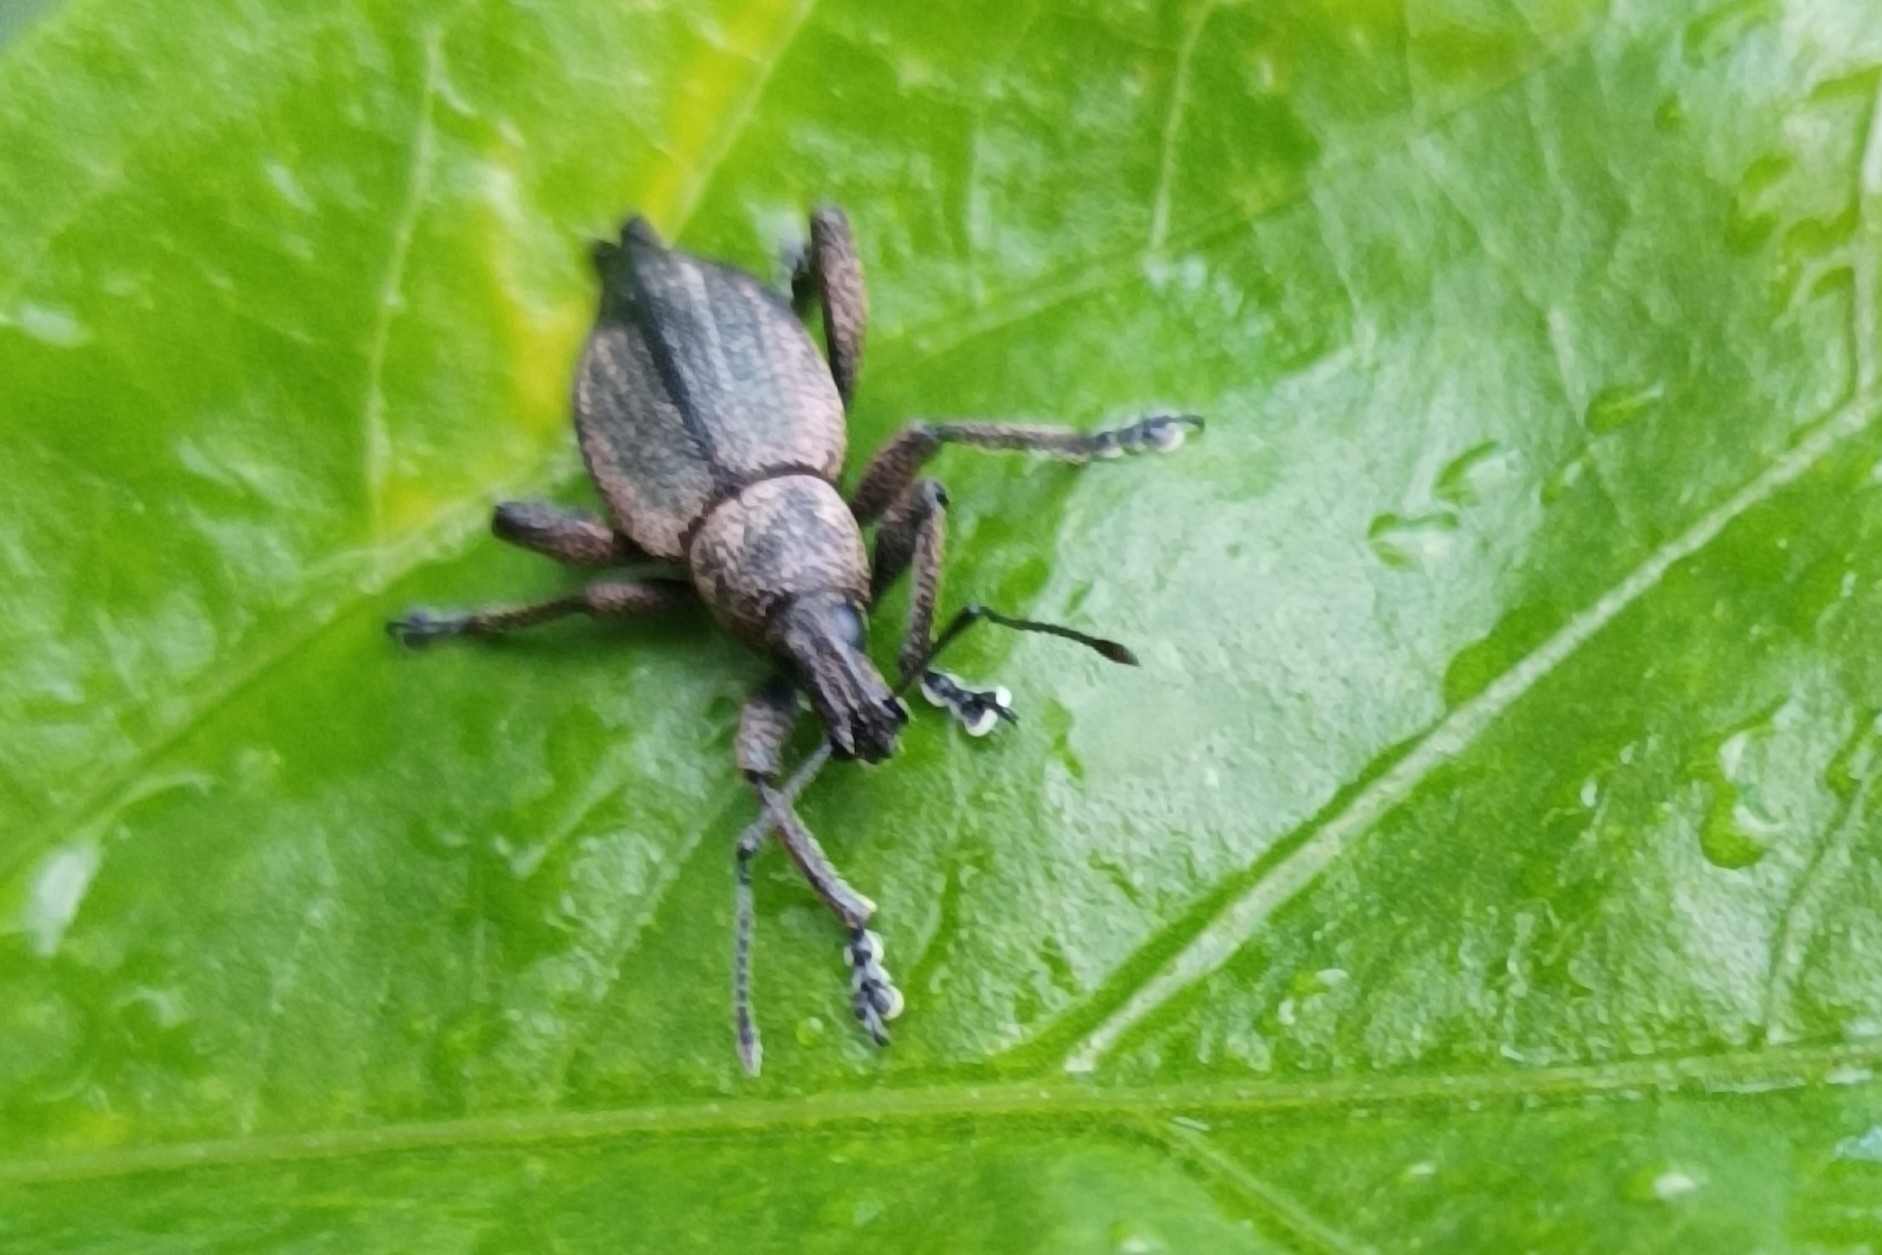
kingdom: Animalia
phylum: Arthropoda
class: Insecta
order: Coleoptera
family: Curculionidae
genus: Elytrurus
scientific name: Elytrurus serrulatus
